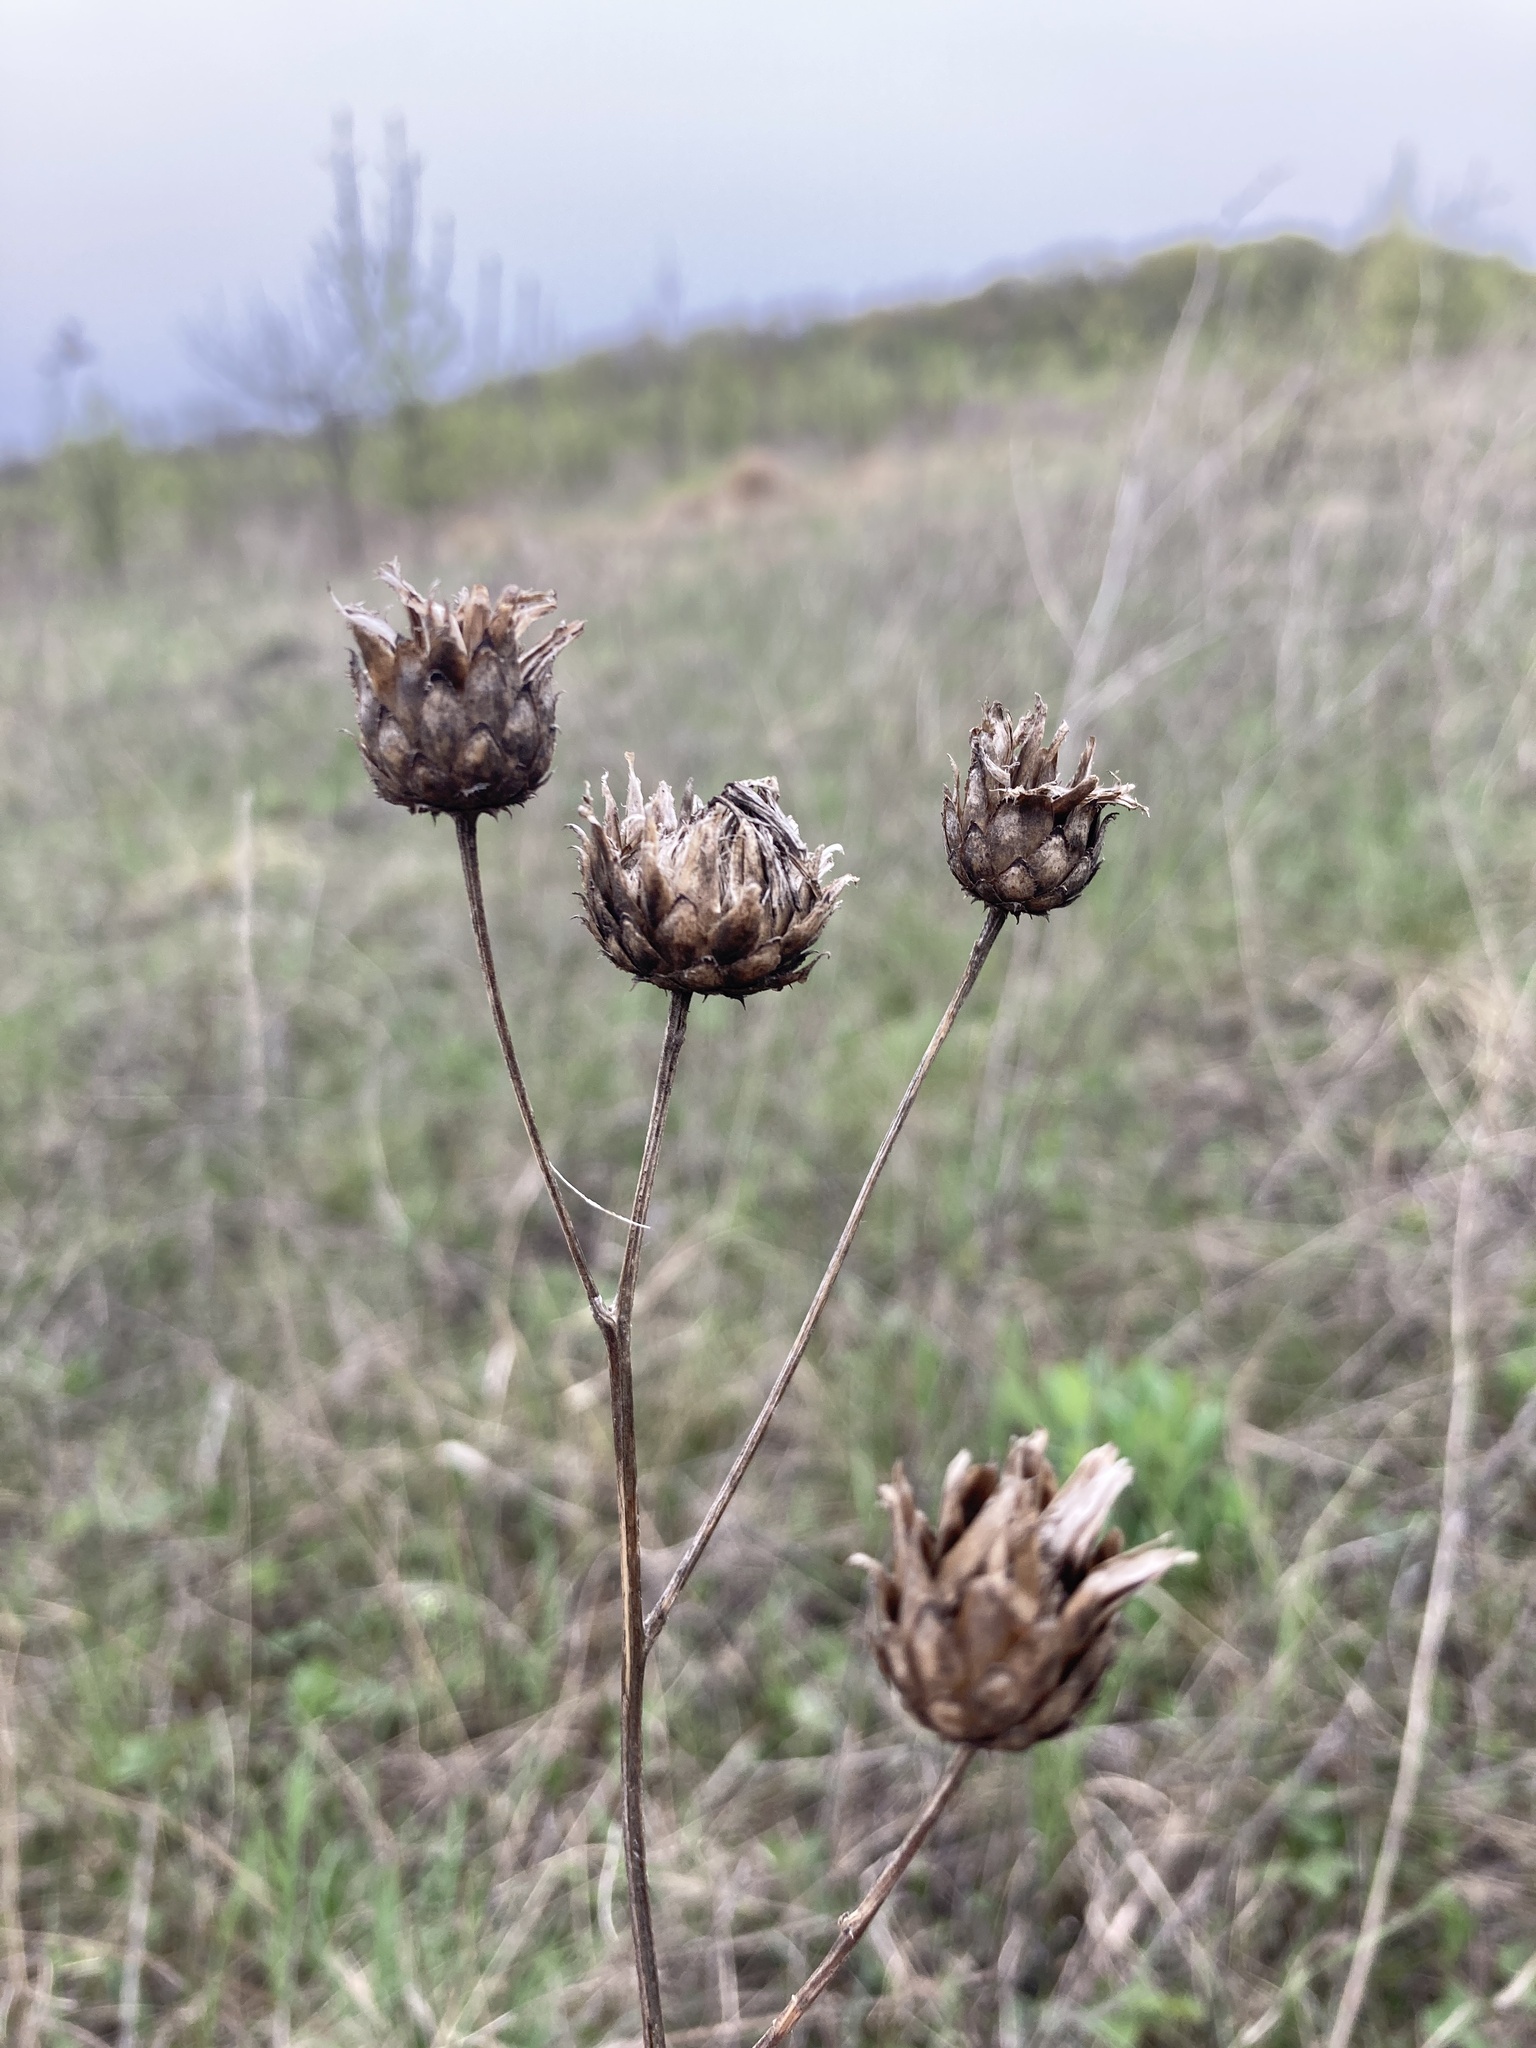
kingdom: Plantae
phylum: Tracheophyta
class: Magnoliopsida
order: Asterales
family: Asteraceae
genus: Centaurea
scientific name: Centaurea scabiosa
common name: Greater knapweed
